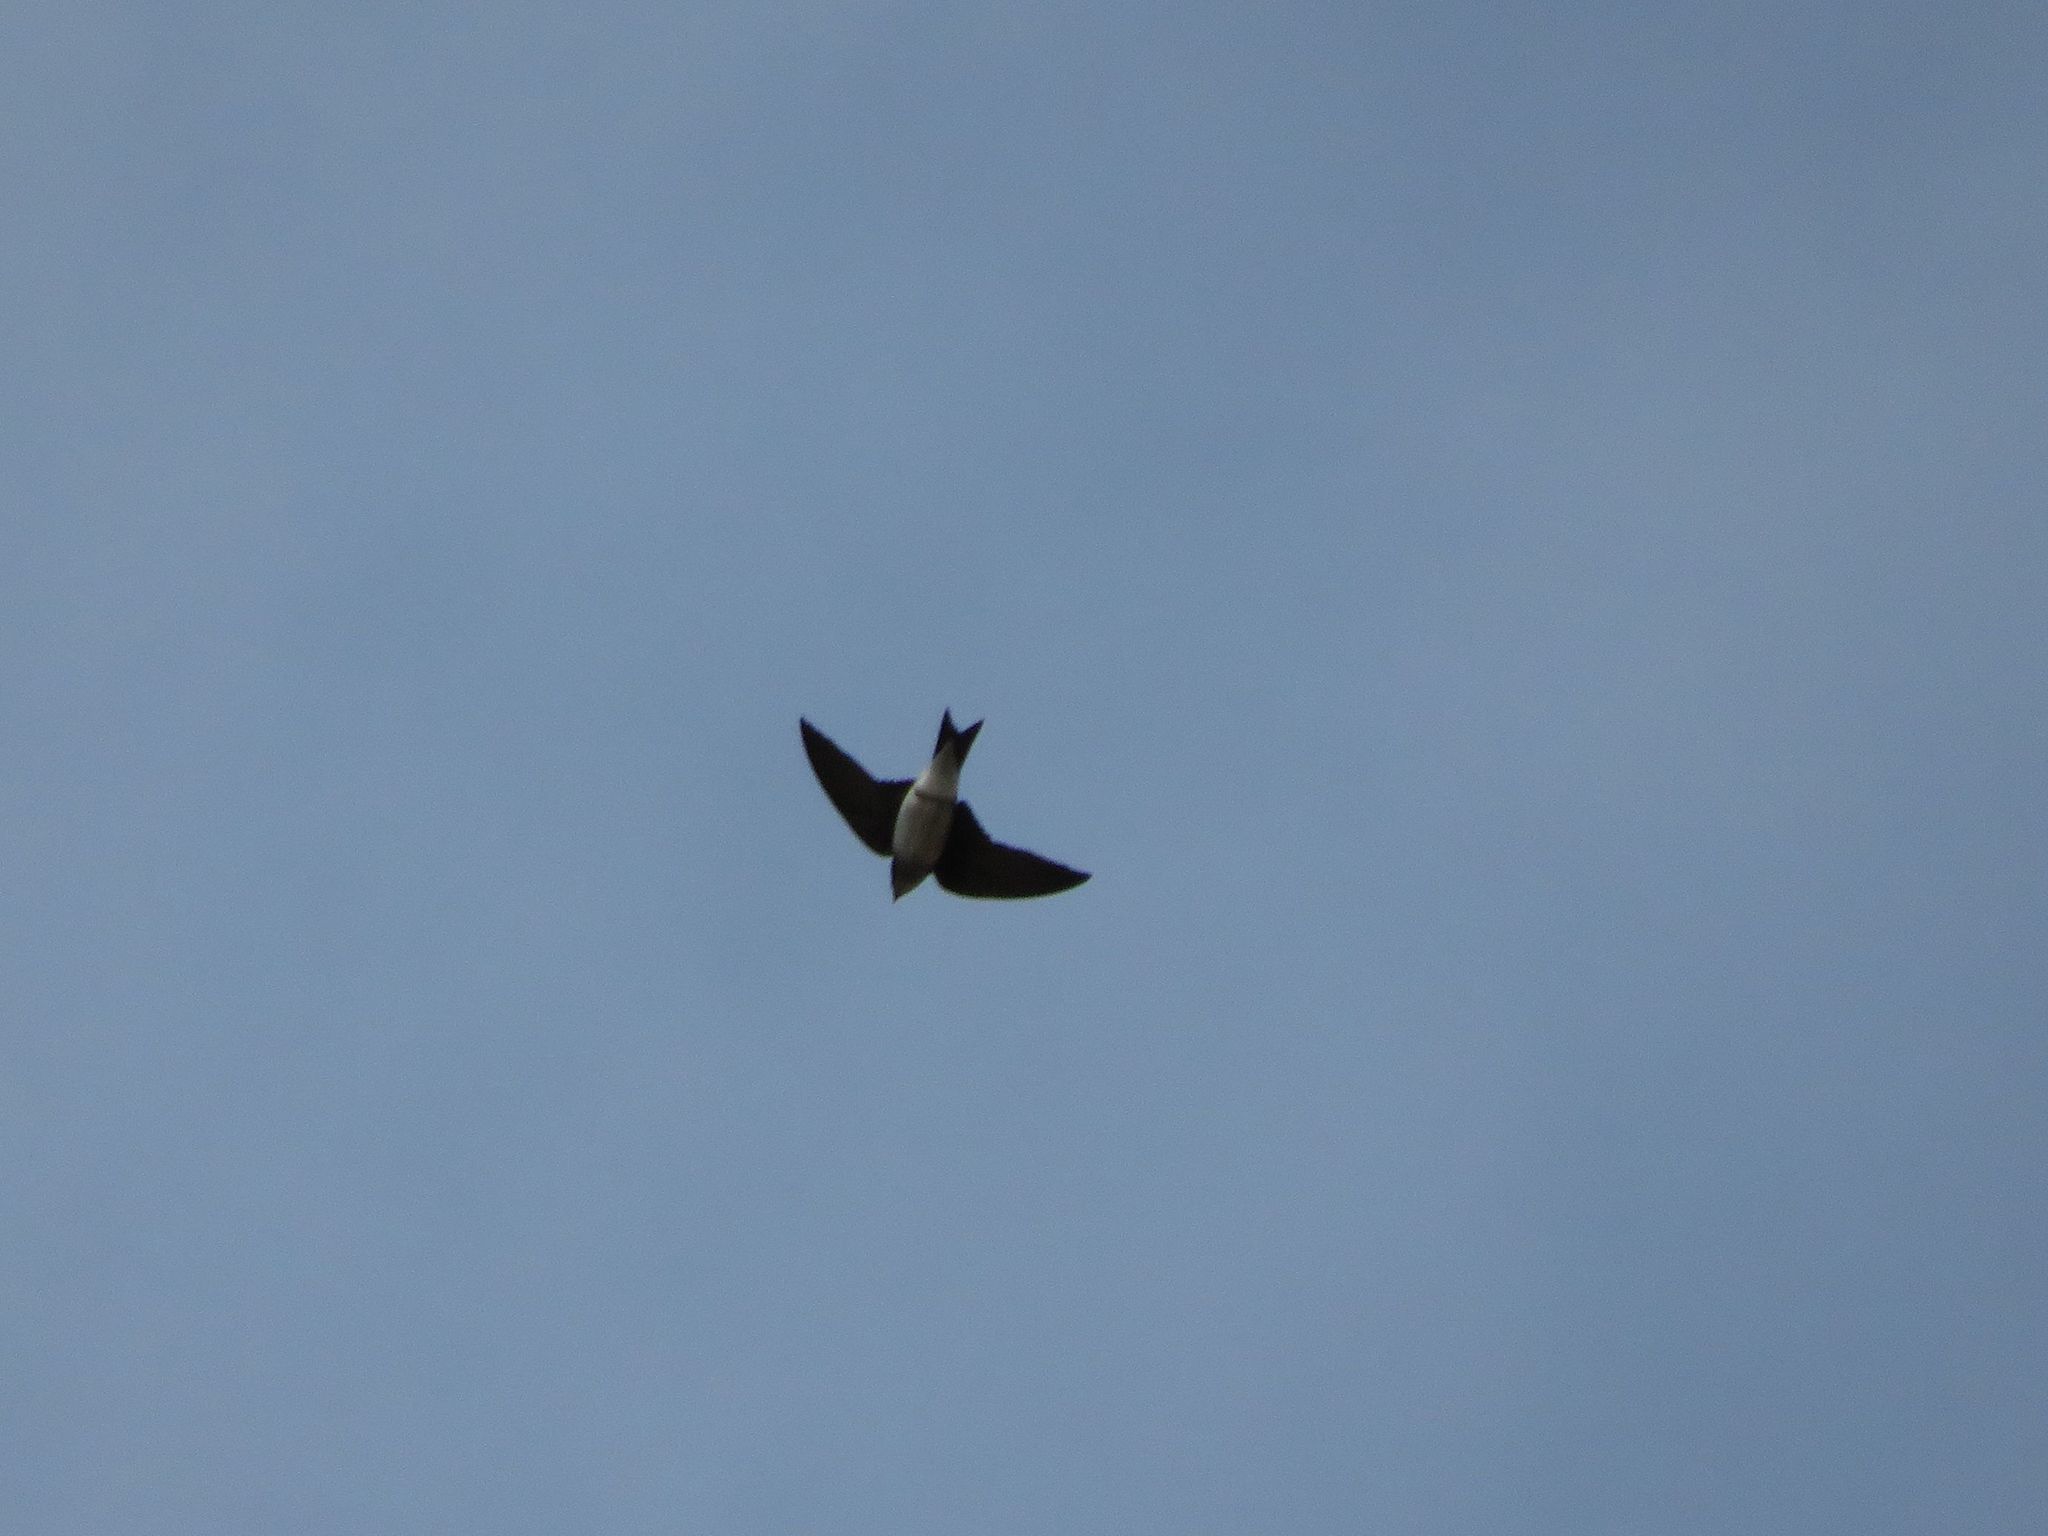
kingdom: Animalia
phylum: Chordata
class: Aves
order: Passeriformes
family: Hirundinidae
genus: Progne
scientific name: Progne chalybea
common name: Grey-breasted martin
